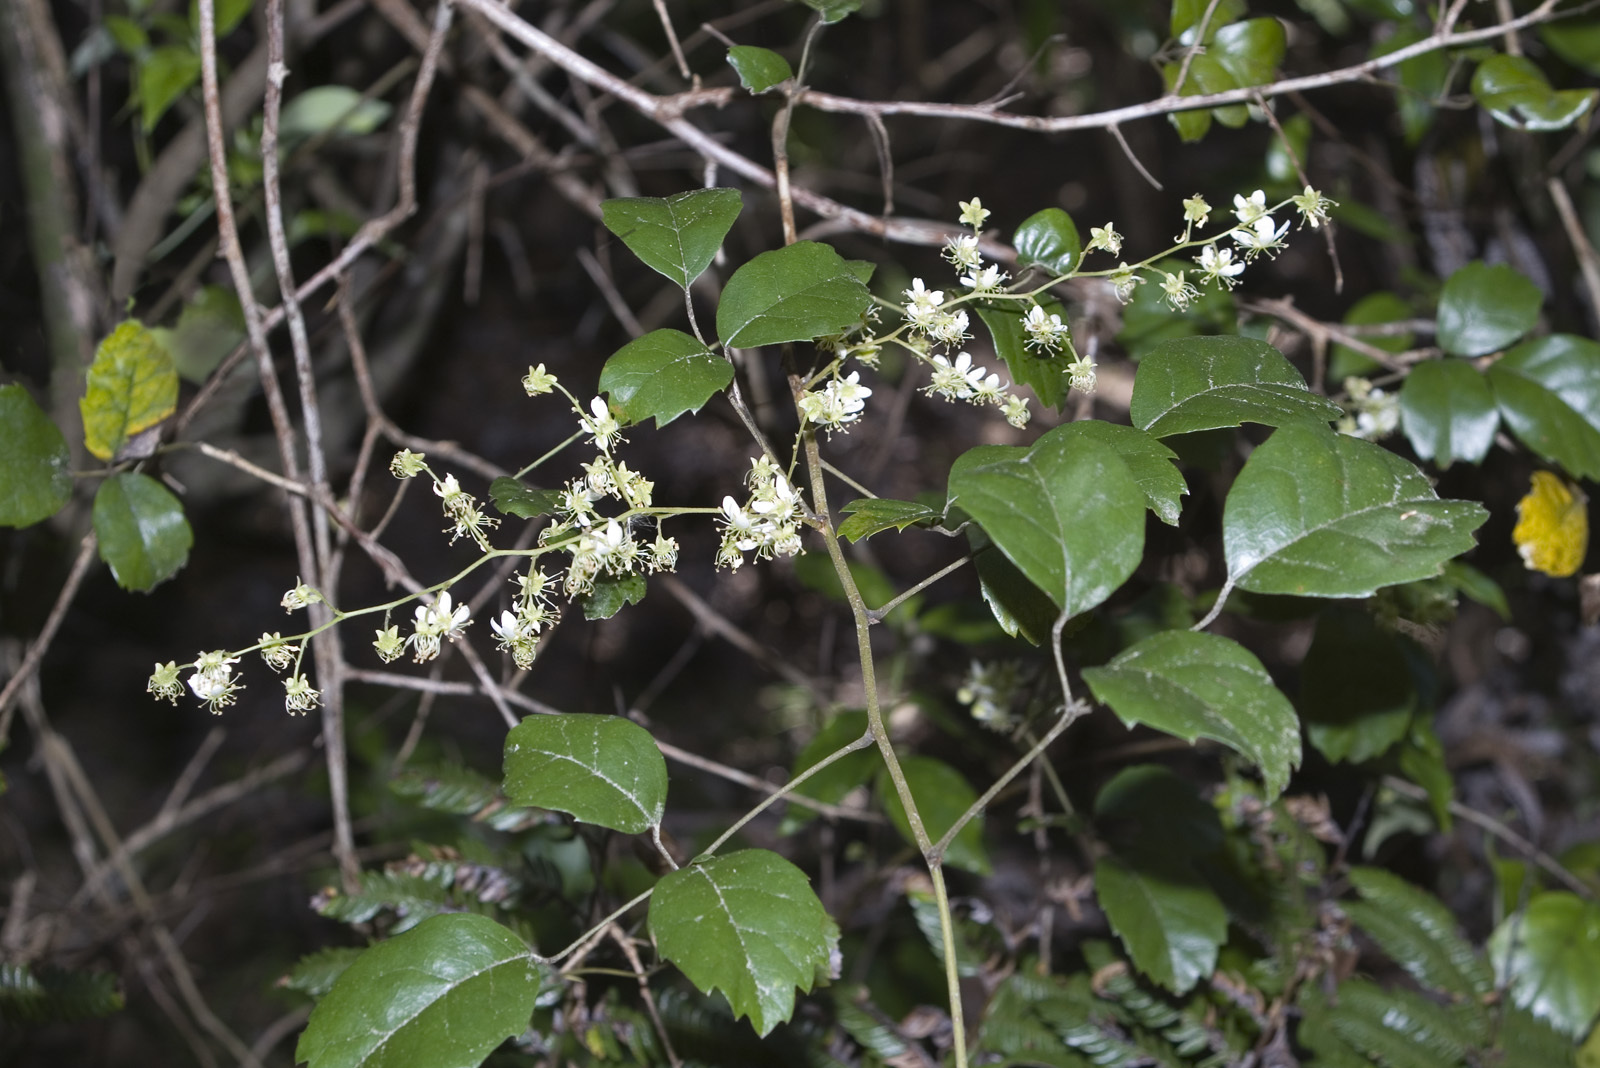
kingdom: Plantae
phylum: Tracheophyta
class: Magnoliopsida
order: Rosales
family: Rosaceae
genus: Rubus
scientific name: Rubus australis
